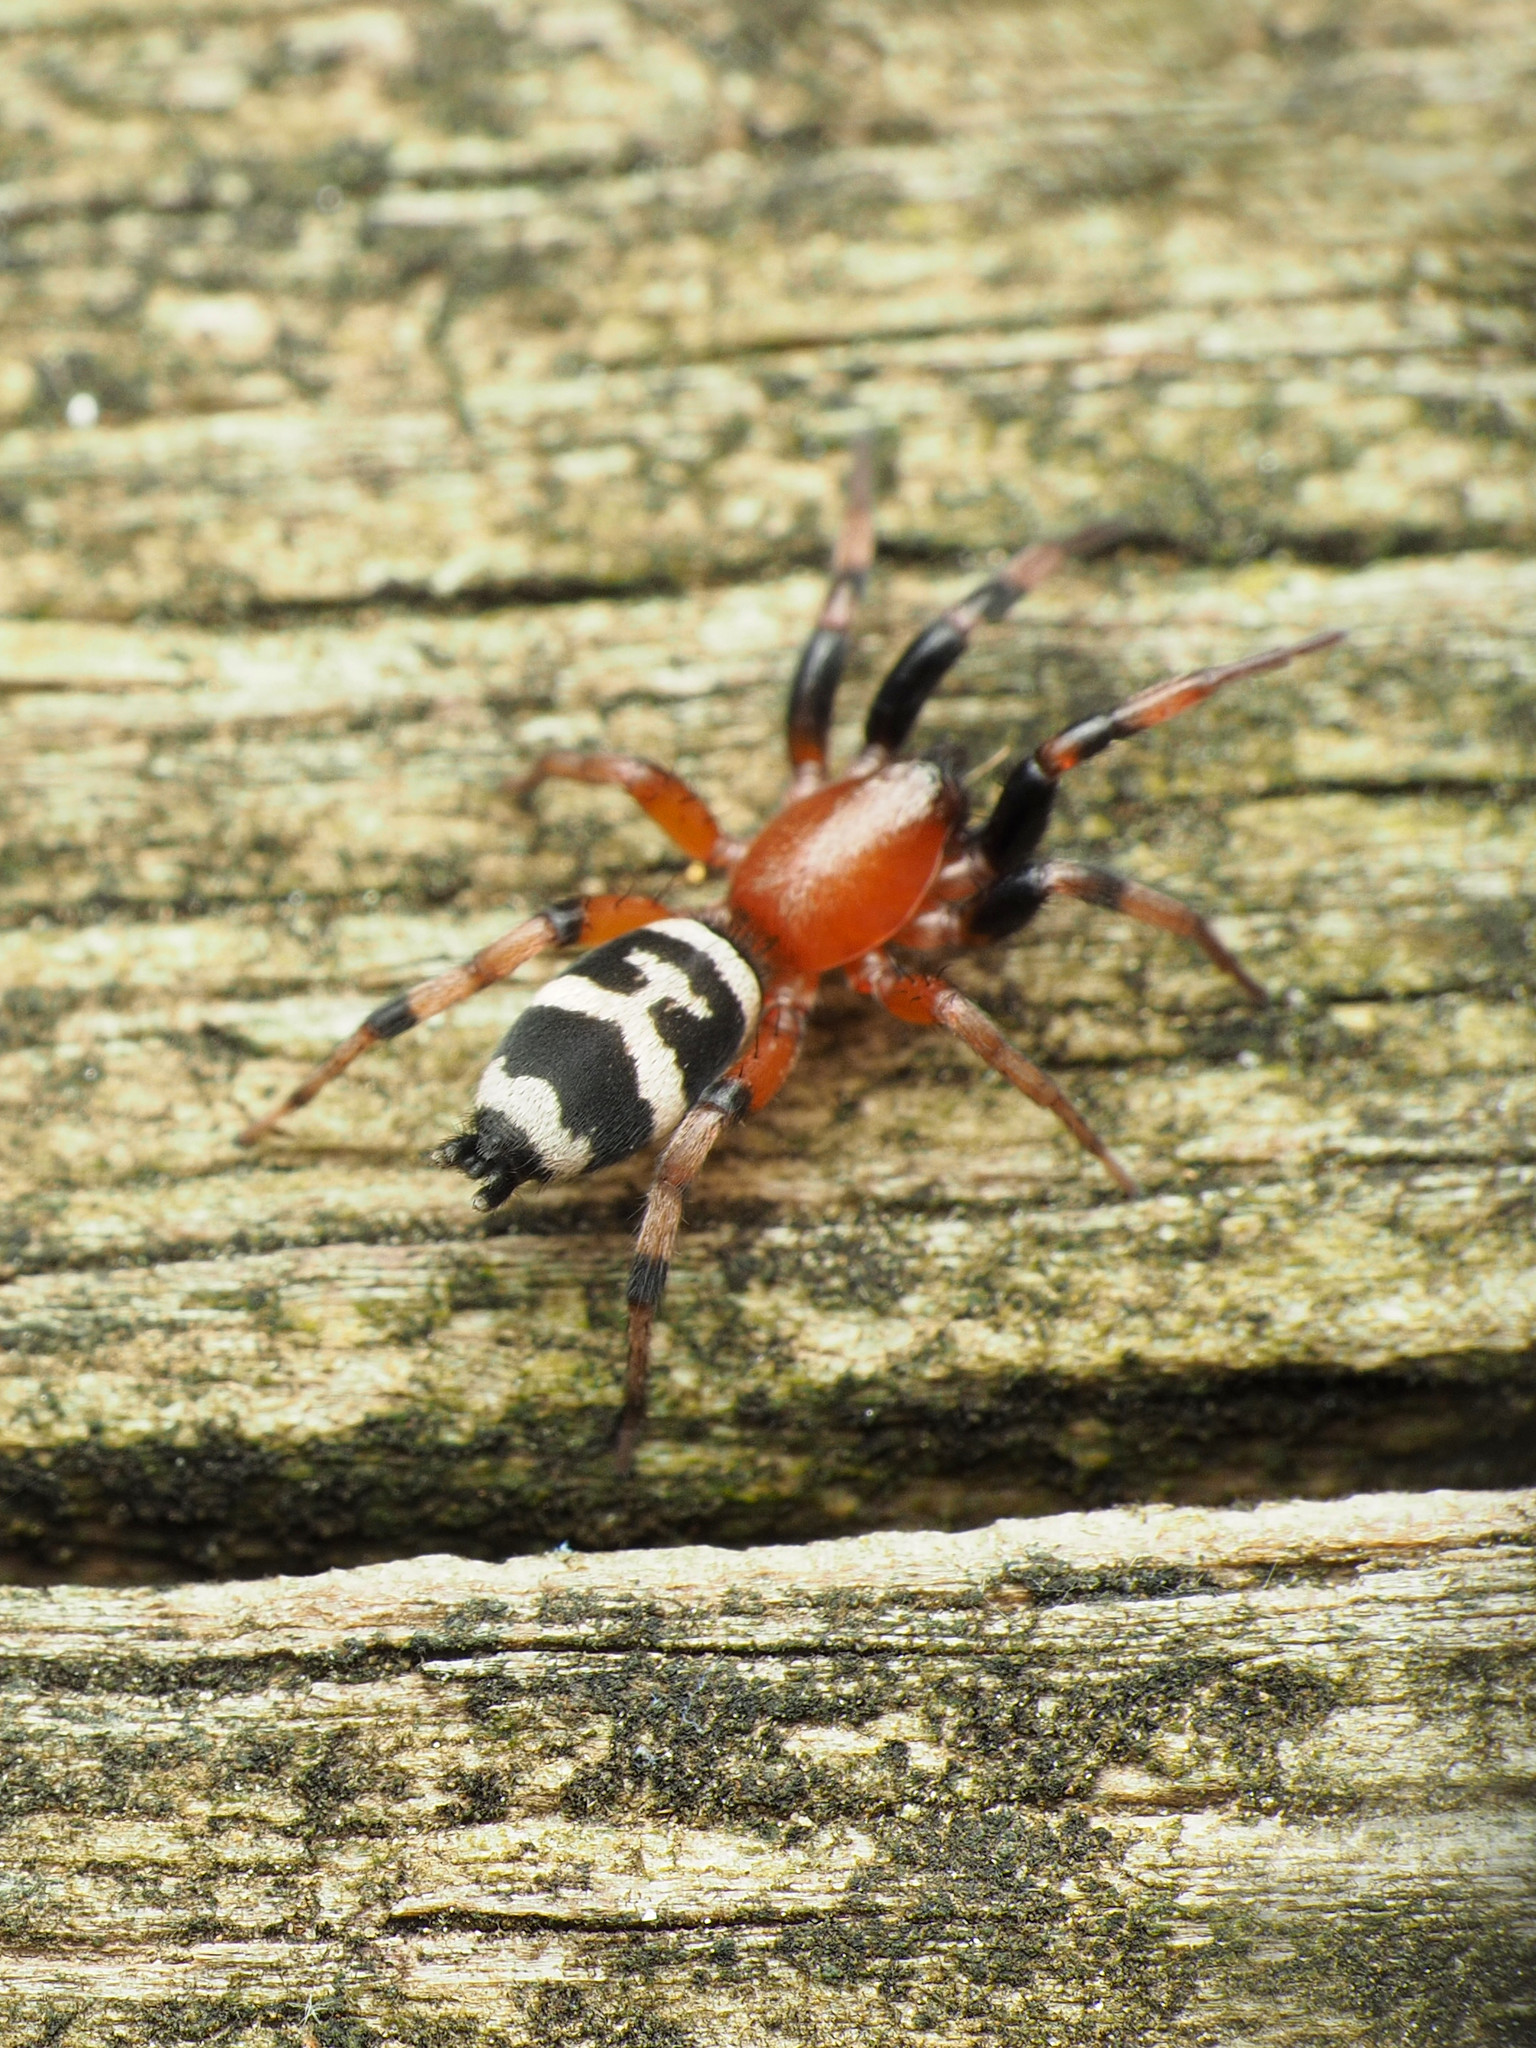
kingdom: Animalia
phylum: Arthropoda
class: Arachnida
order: Araneae
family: Gnaphosidae
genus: Sergiolus
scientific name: Sergiolus capulatus
